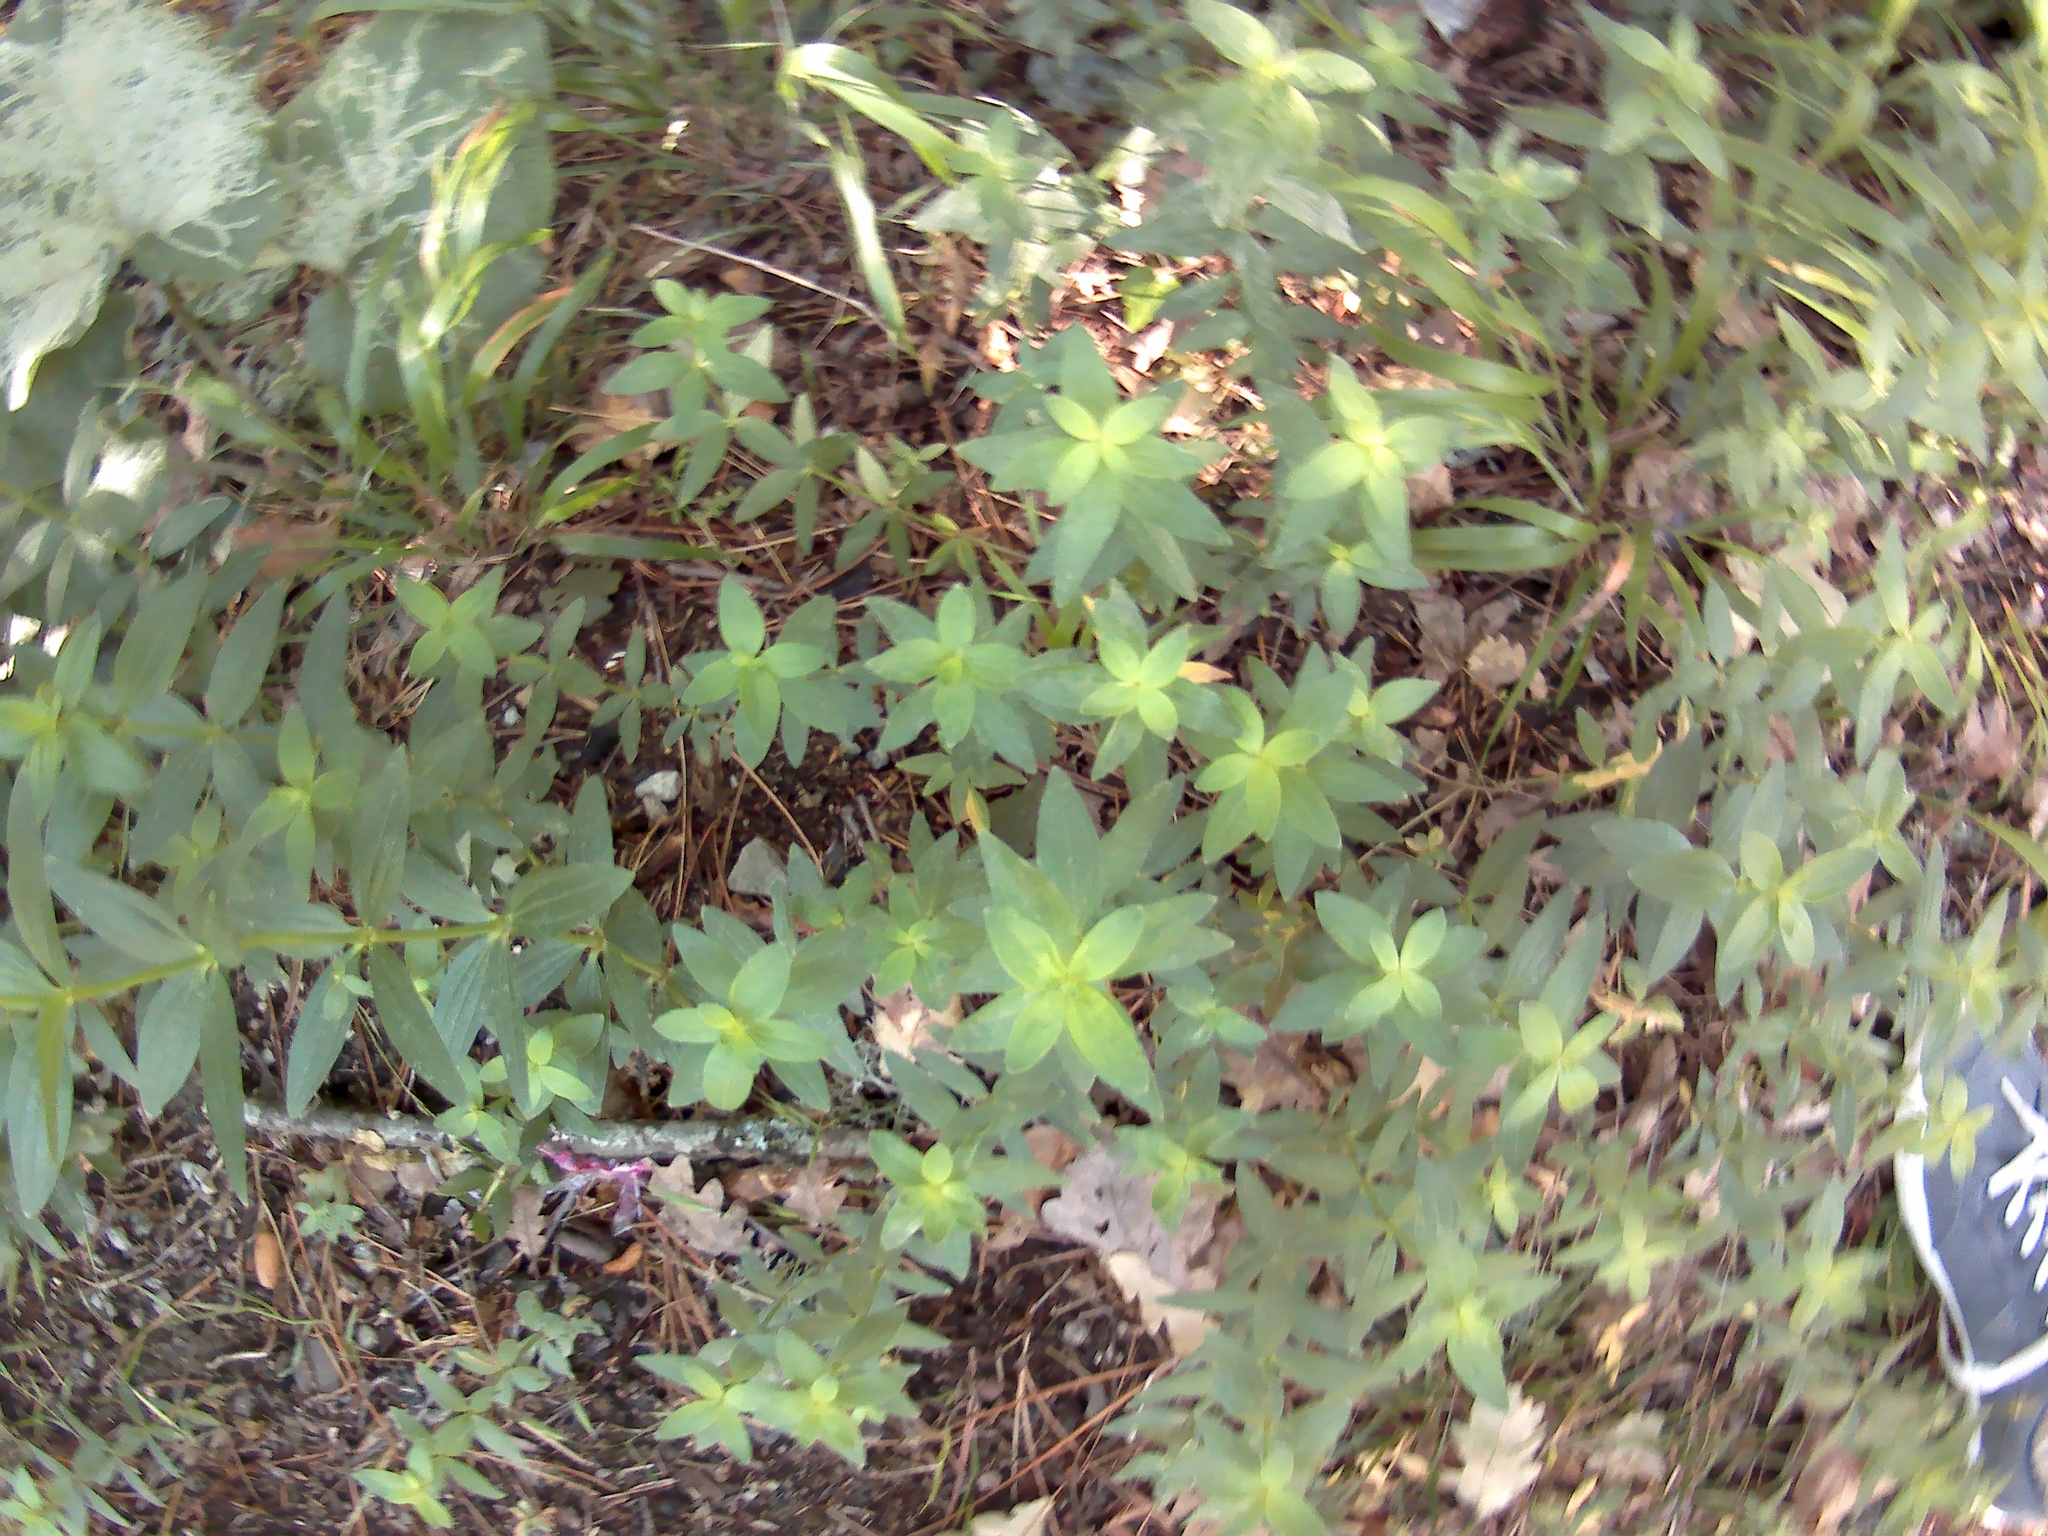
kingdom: Plantae
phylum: Tracheophyta
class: Magnoliopsida
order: Gentianales
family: Rubiaceae
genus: Galium
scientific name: Galium rubioides
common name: European bedstraw
